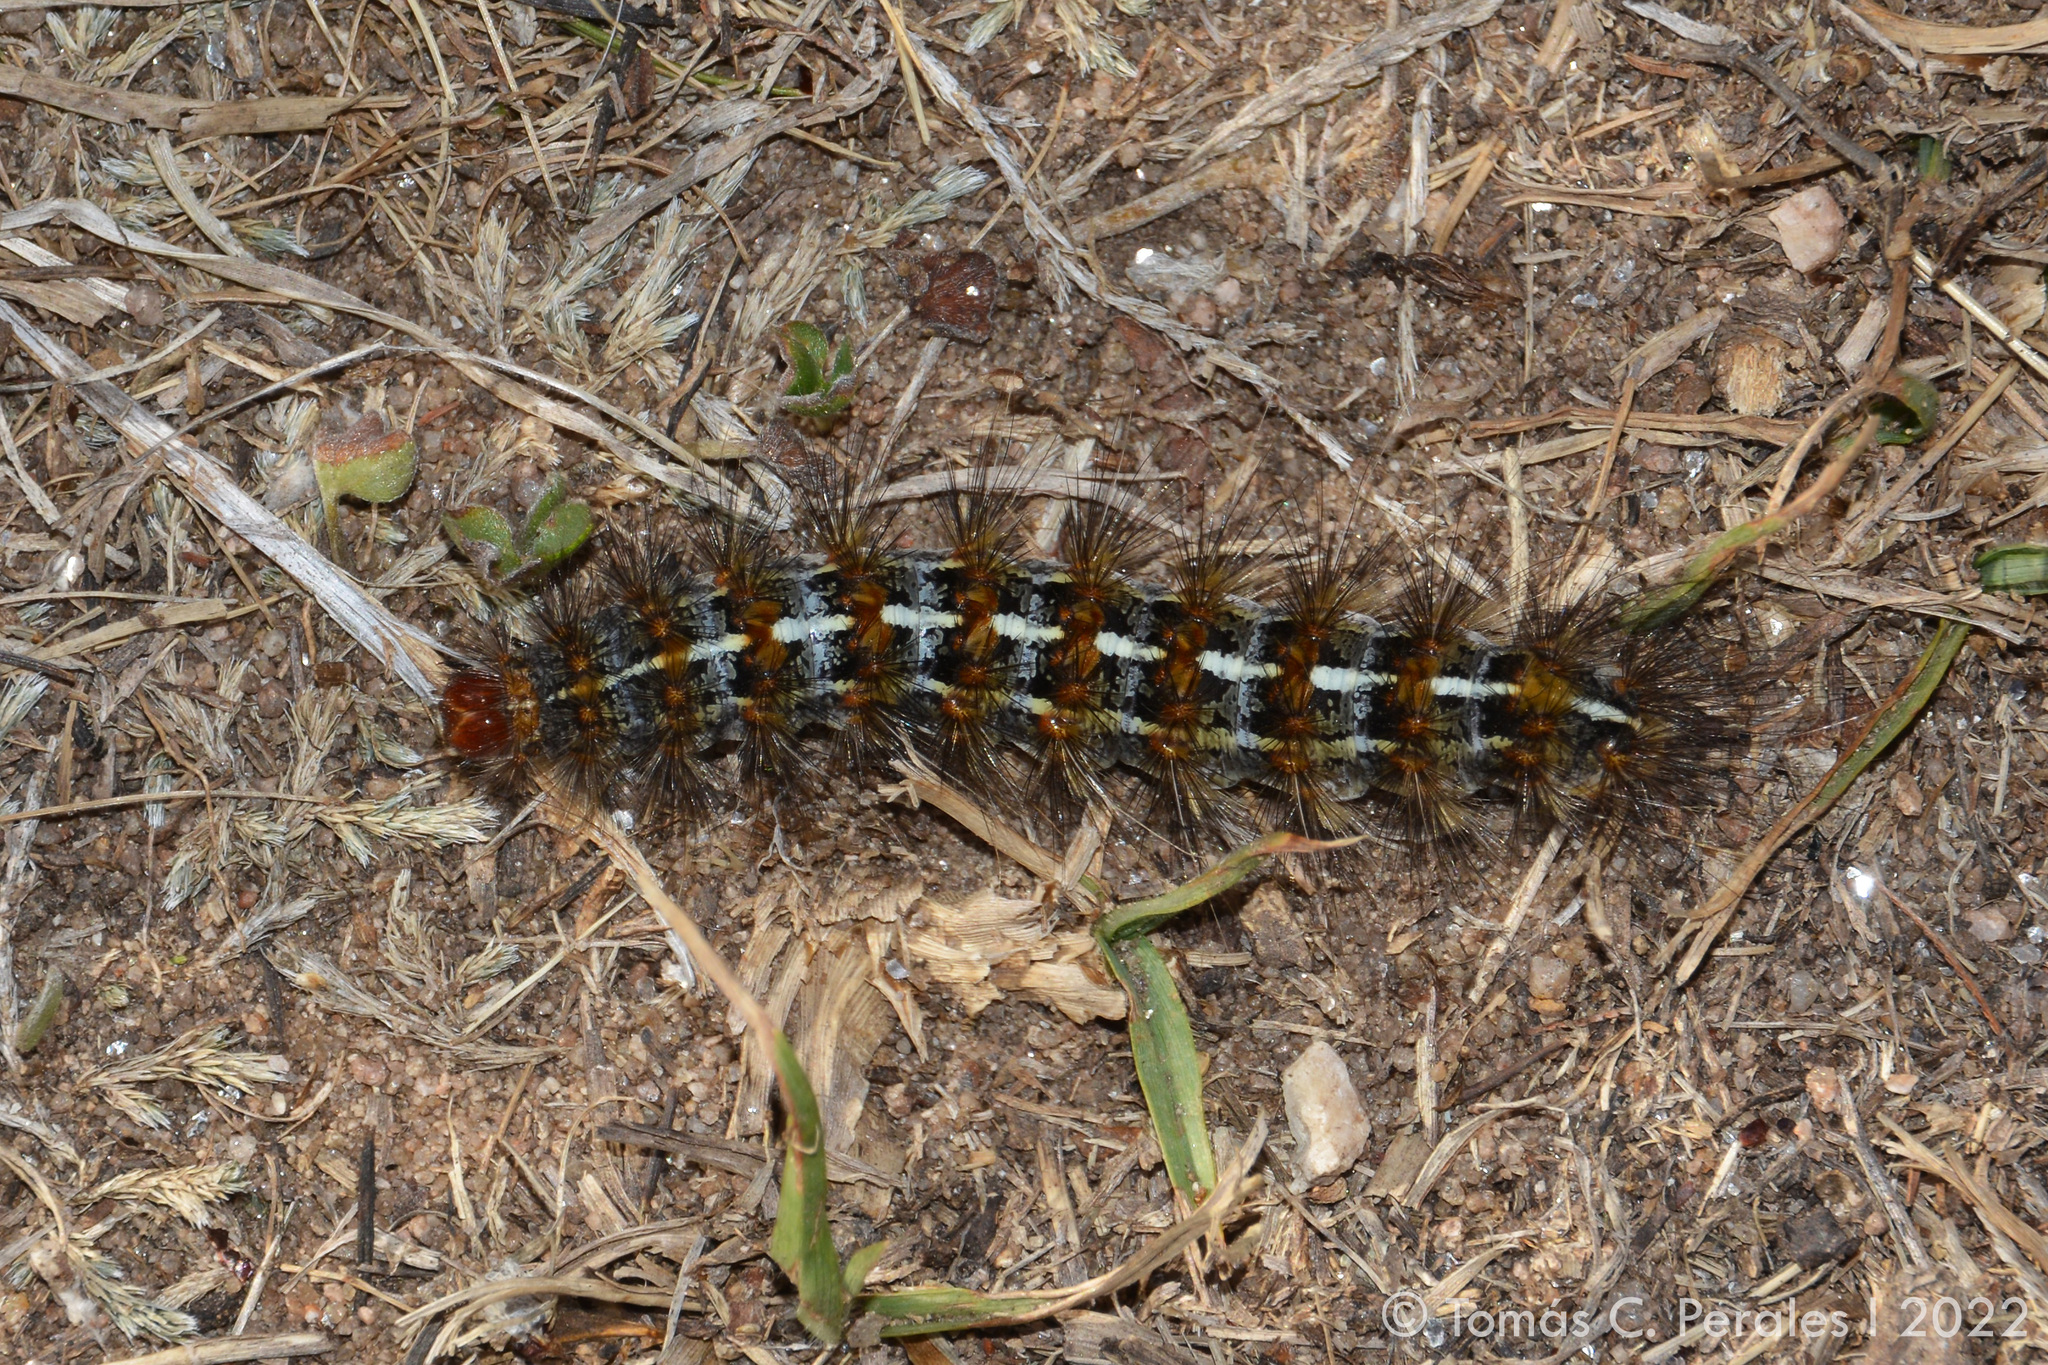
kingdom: Animalia
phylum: Arthropoda
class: Insecta
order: Lepidoptera
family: Erebidae
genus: Paracles
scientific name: Paracles deserticola
